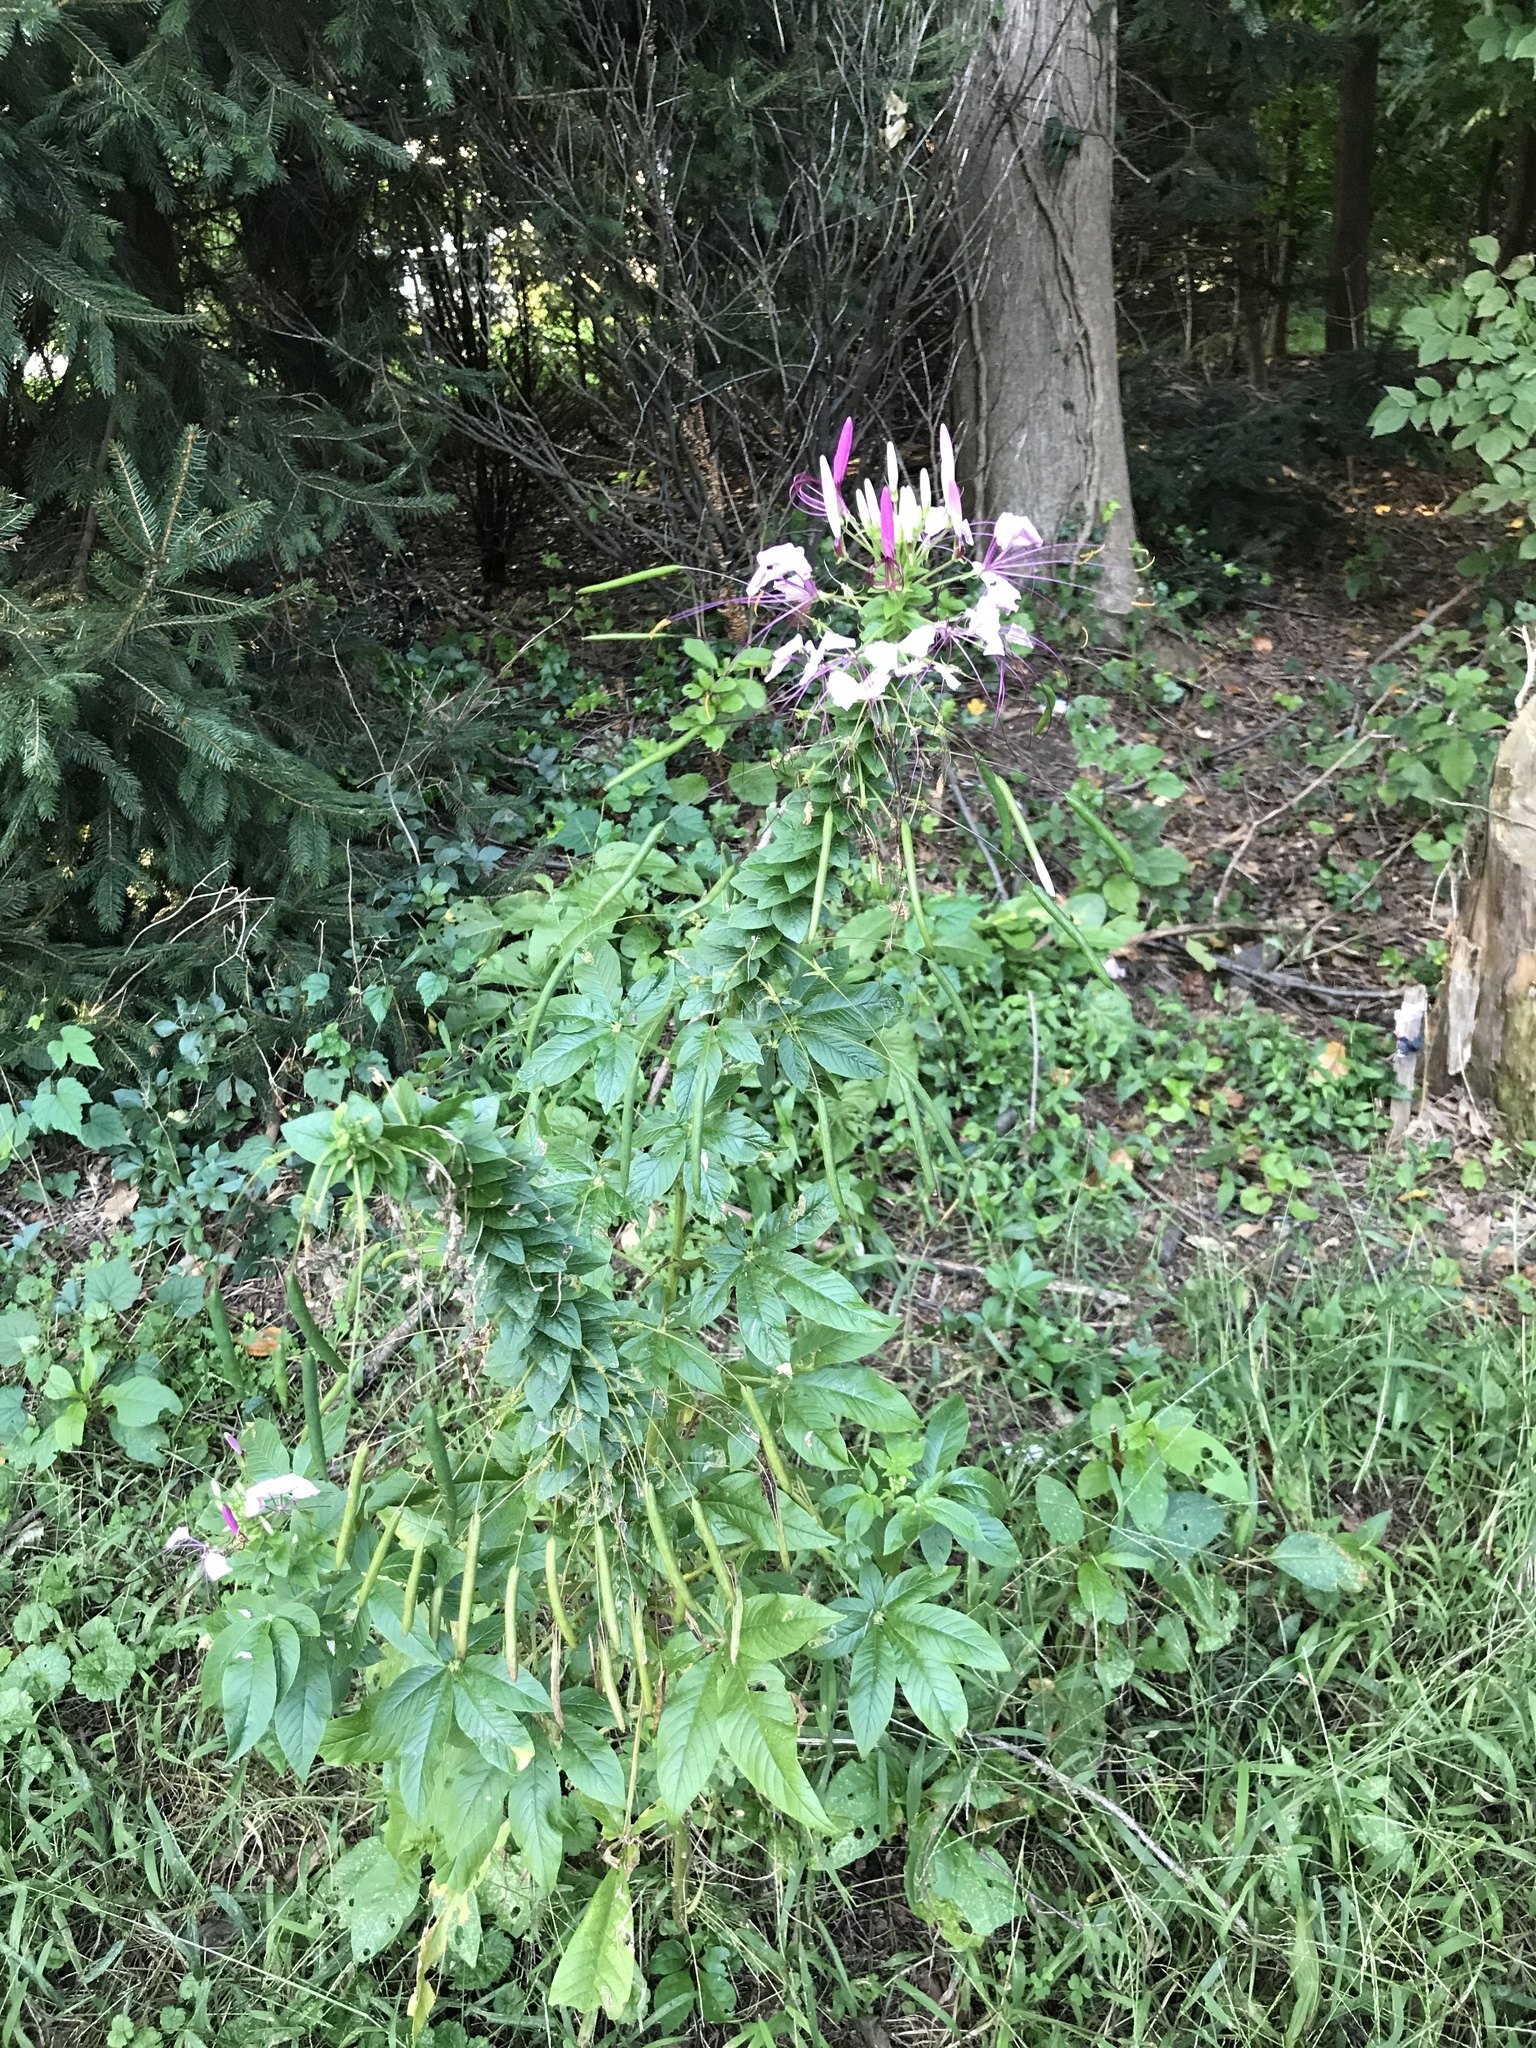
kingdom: Plantae
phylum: Tracheophyta
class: Magnoliopsida
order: Brassicales
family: Cleomaceae
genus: Tarenaya
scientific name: Tarenaya houtteana
